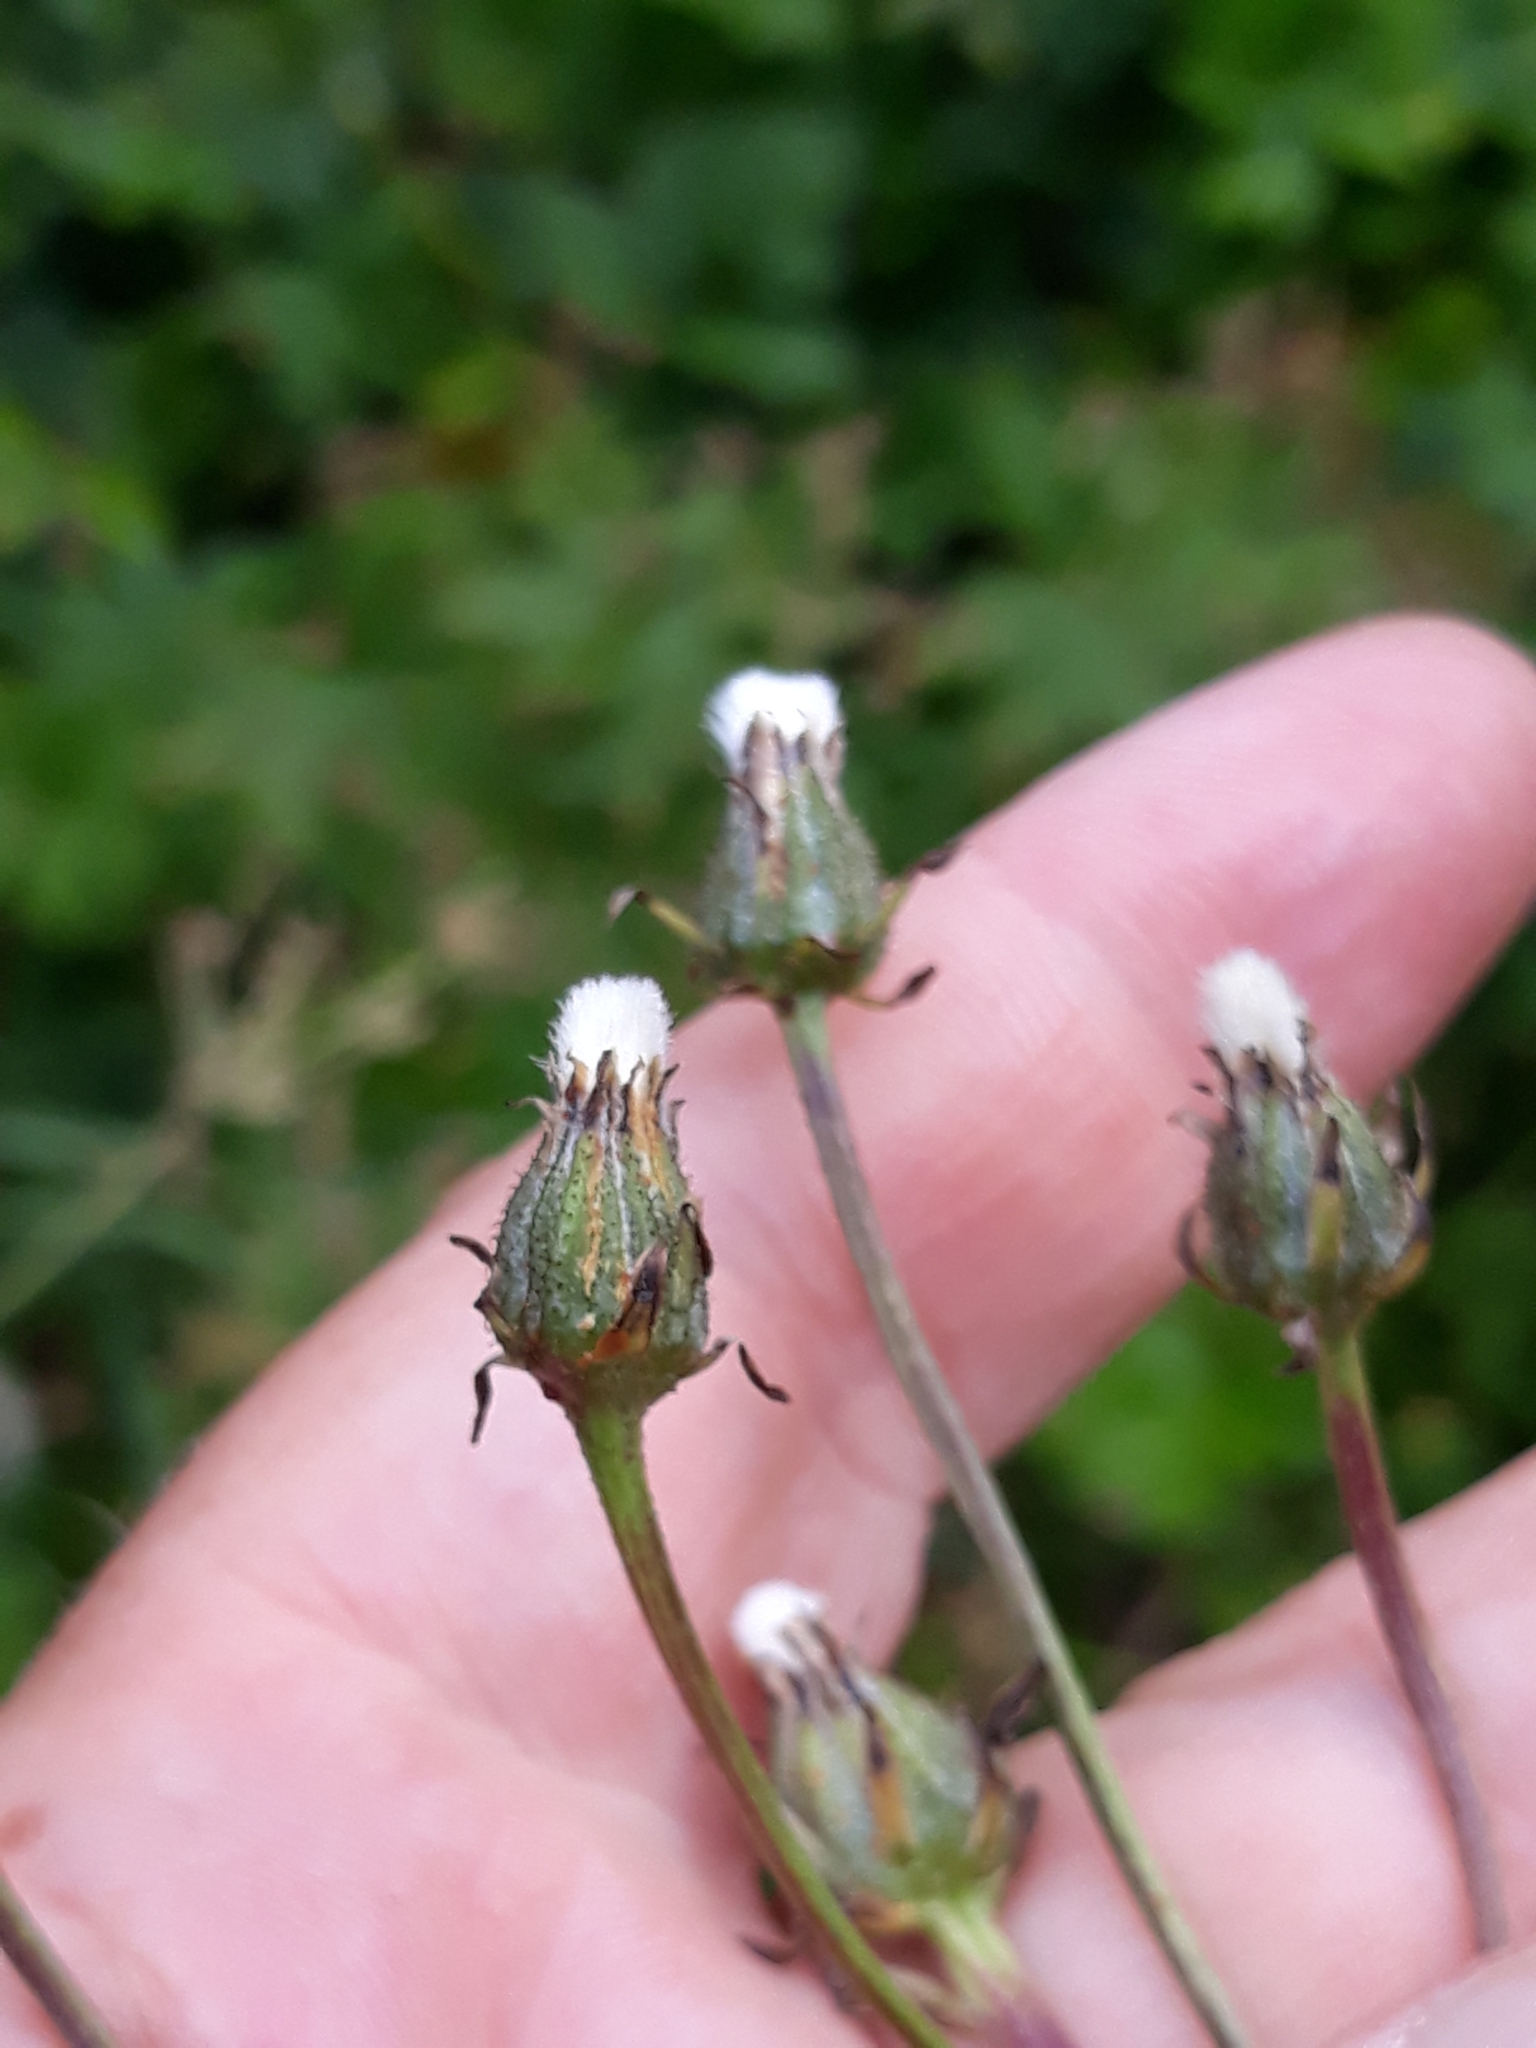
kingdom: Plantae
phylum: Tracheophyta
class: Magnoliopsida
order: Asterales
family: Asteraceae
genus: Crepis
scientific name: Crepis biennis
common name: Rough hawk's-beard
